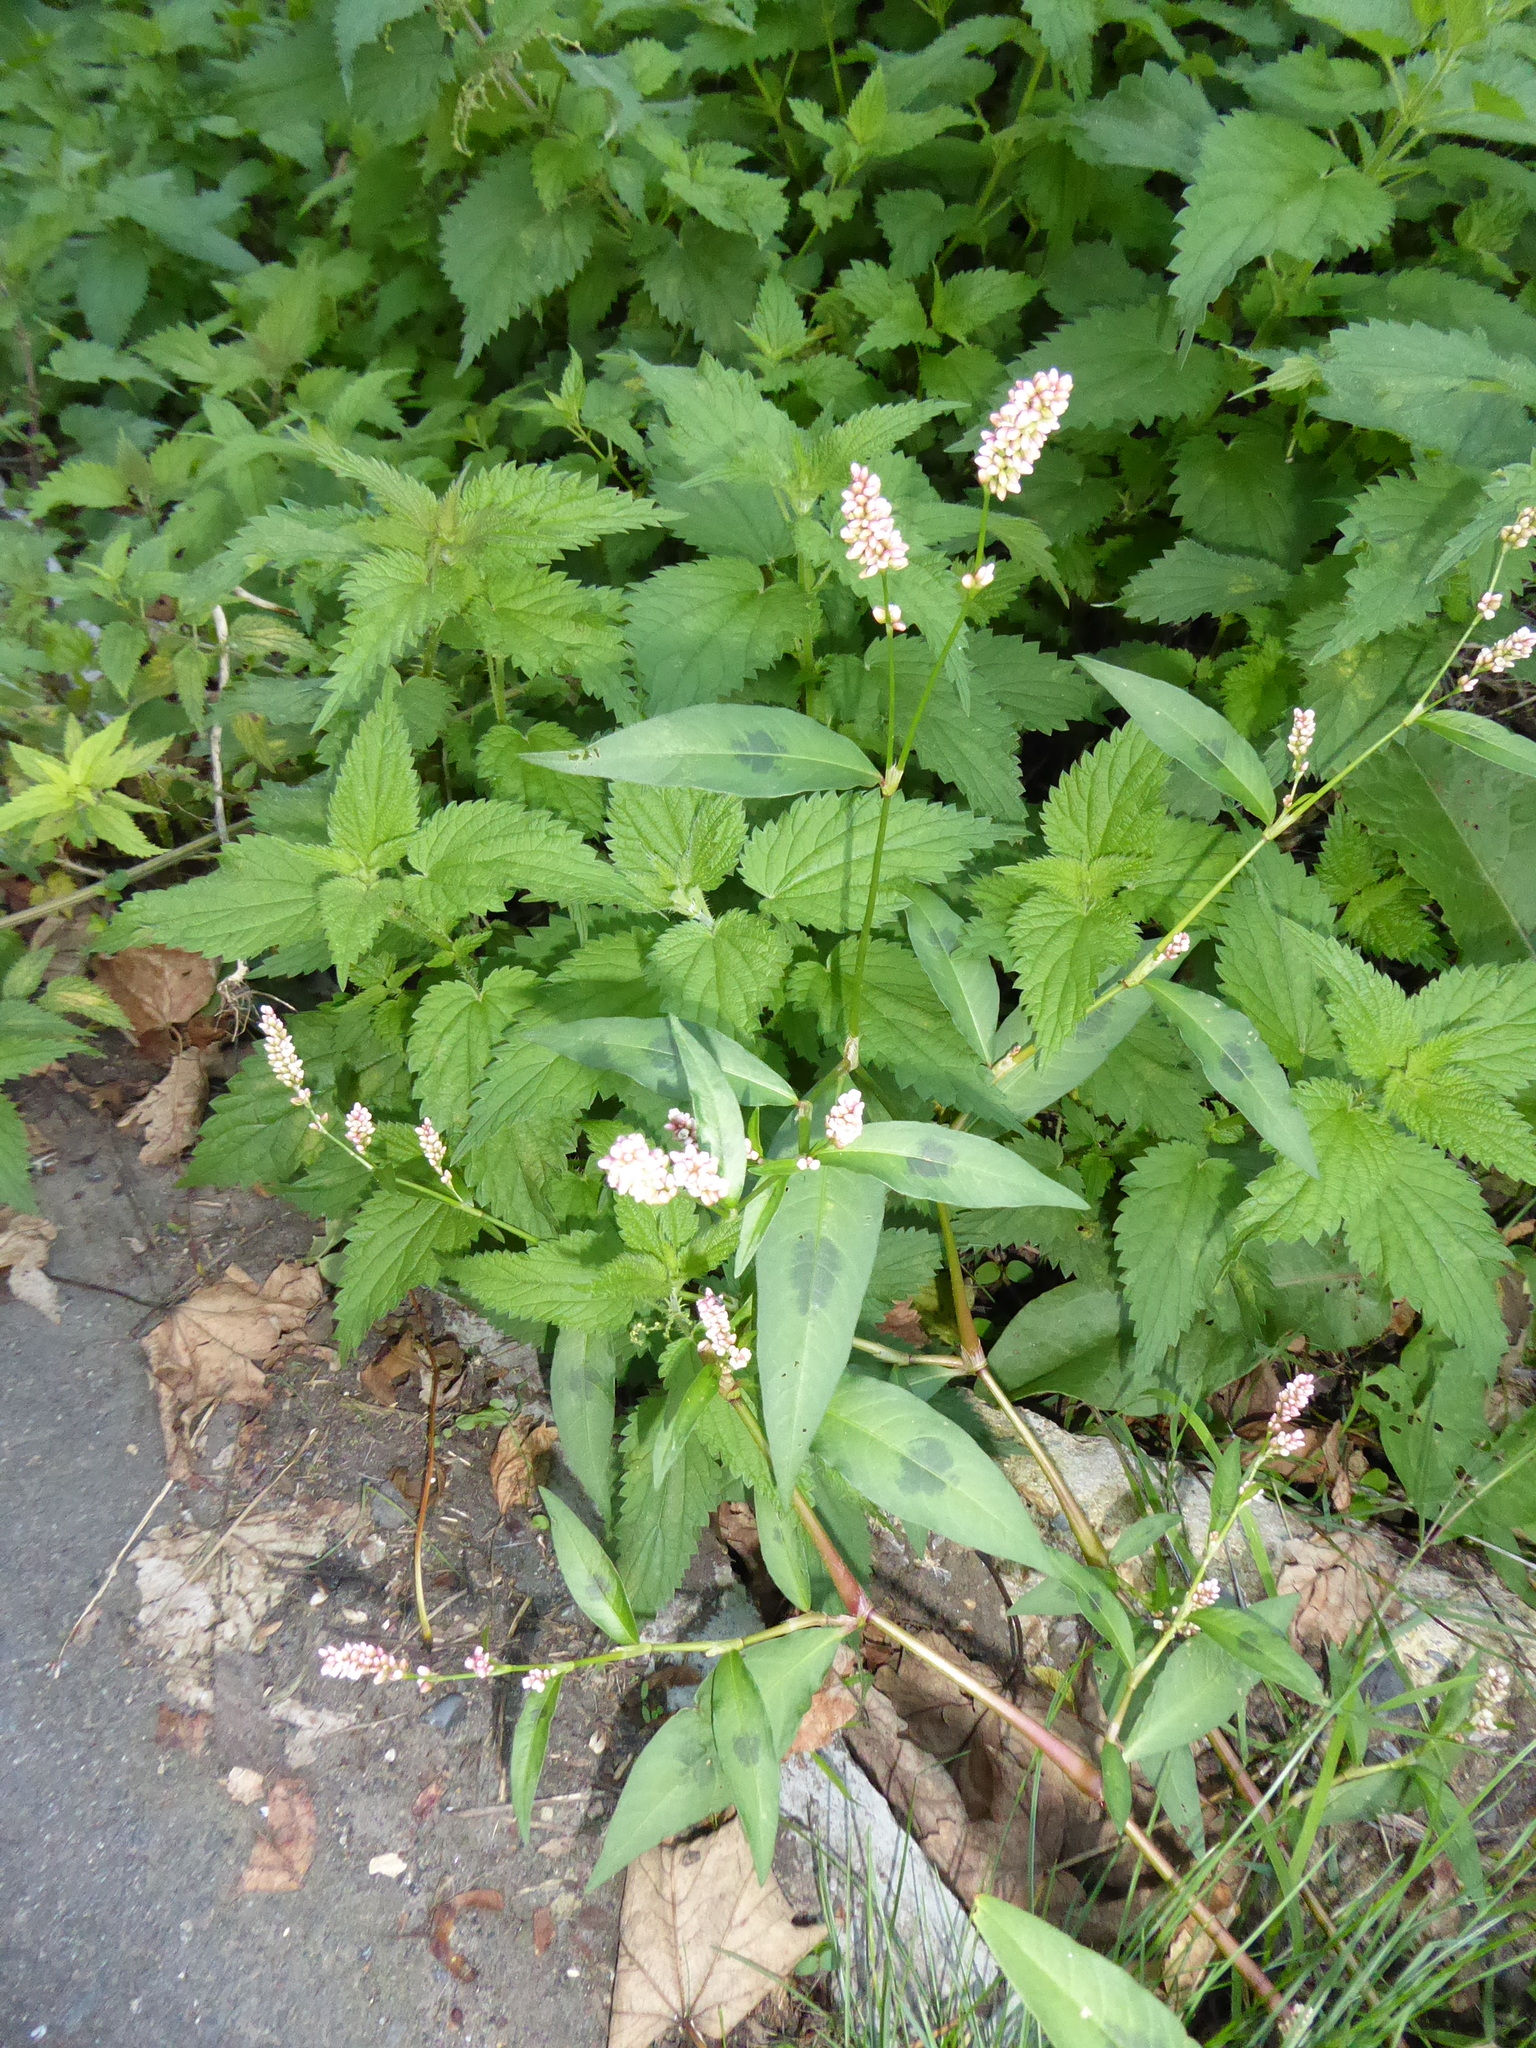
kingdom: Plantae
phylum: Tracheophyta
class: Magnoliopsida
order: Caryophyllales
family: Polygonaceae
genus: Persicaria
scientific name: Persicaria maculosa
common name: Redshank
